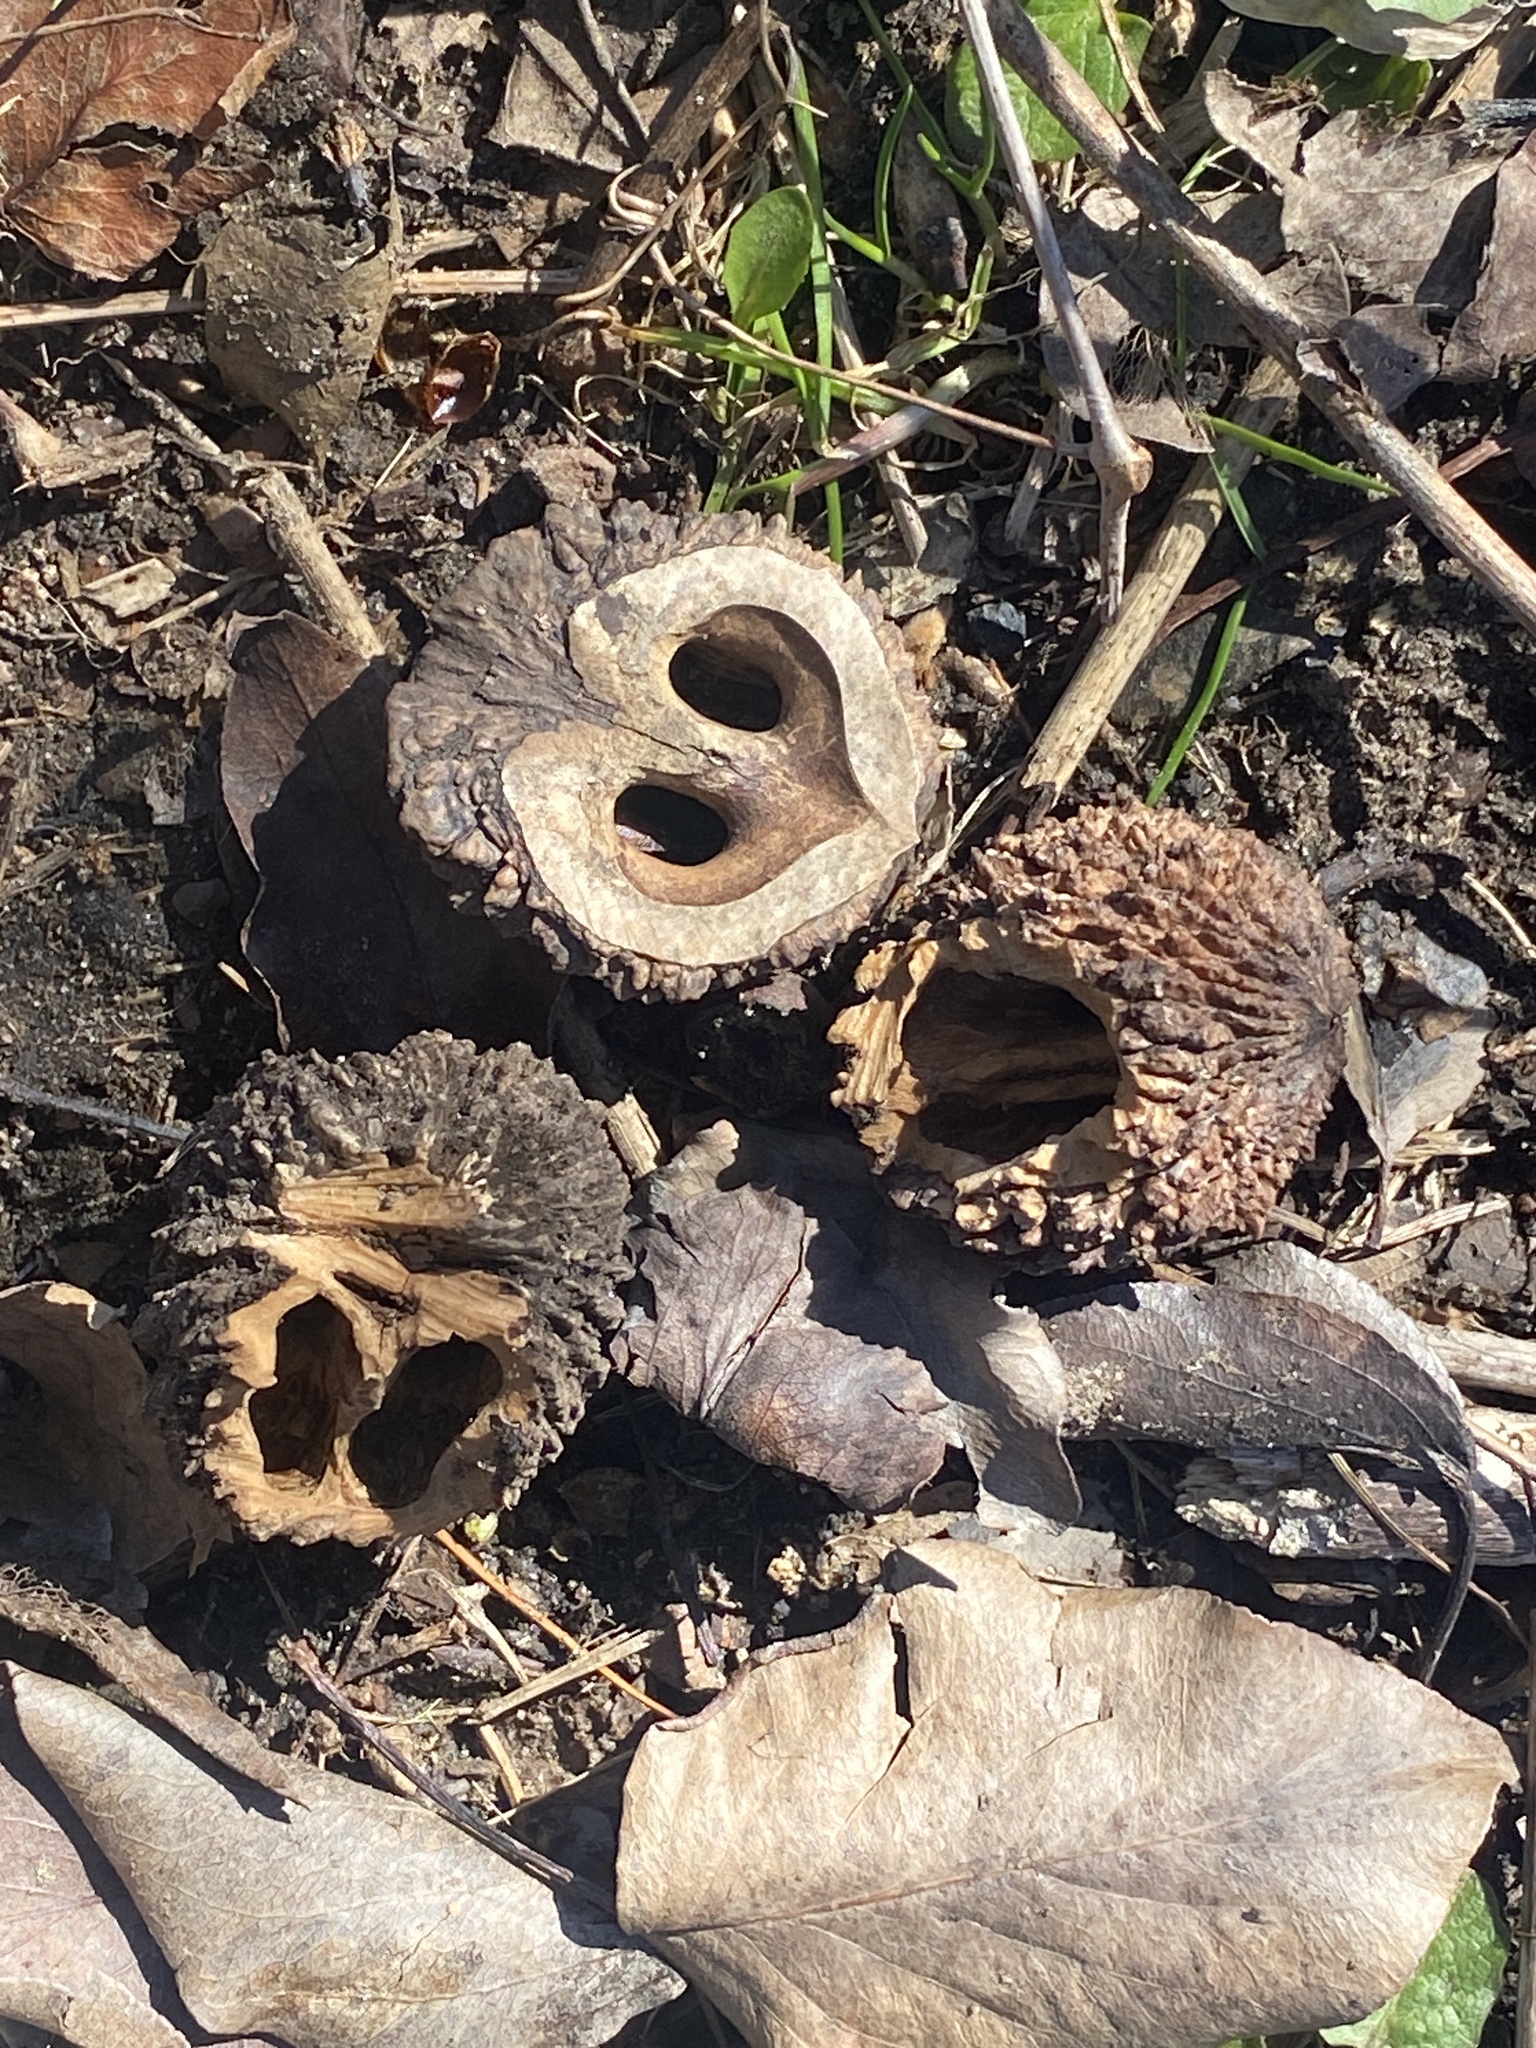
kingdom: Plantae
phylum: Tracheophyta
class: Magnoliopsida
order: Fagales
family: Juglandaceae
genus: Juglans
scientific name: Juglans nigra
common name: Black walnut
